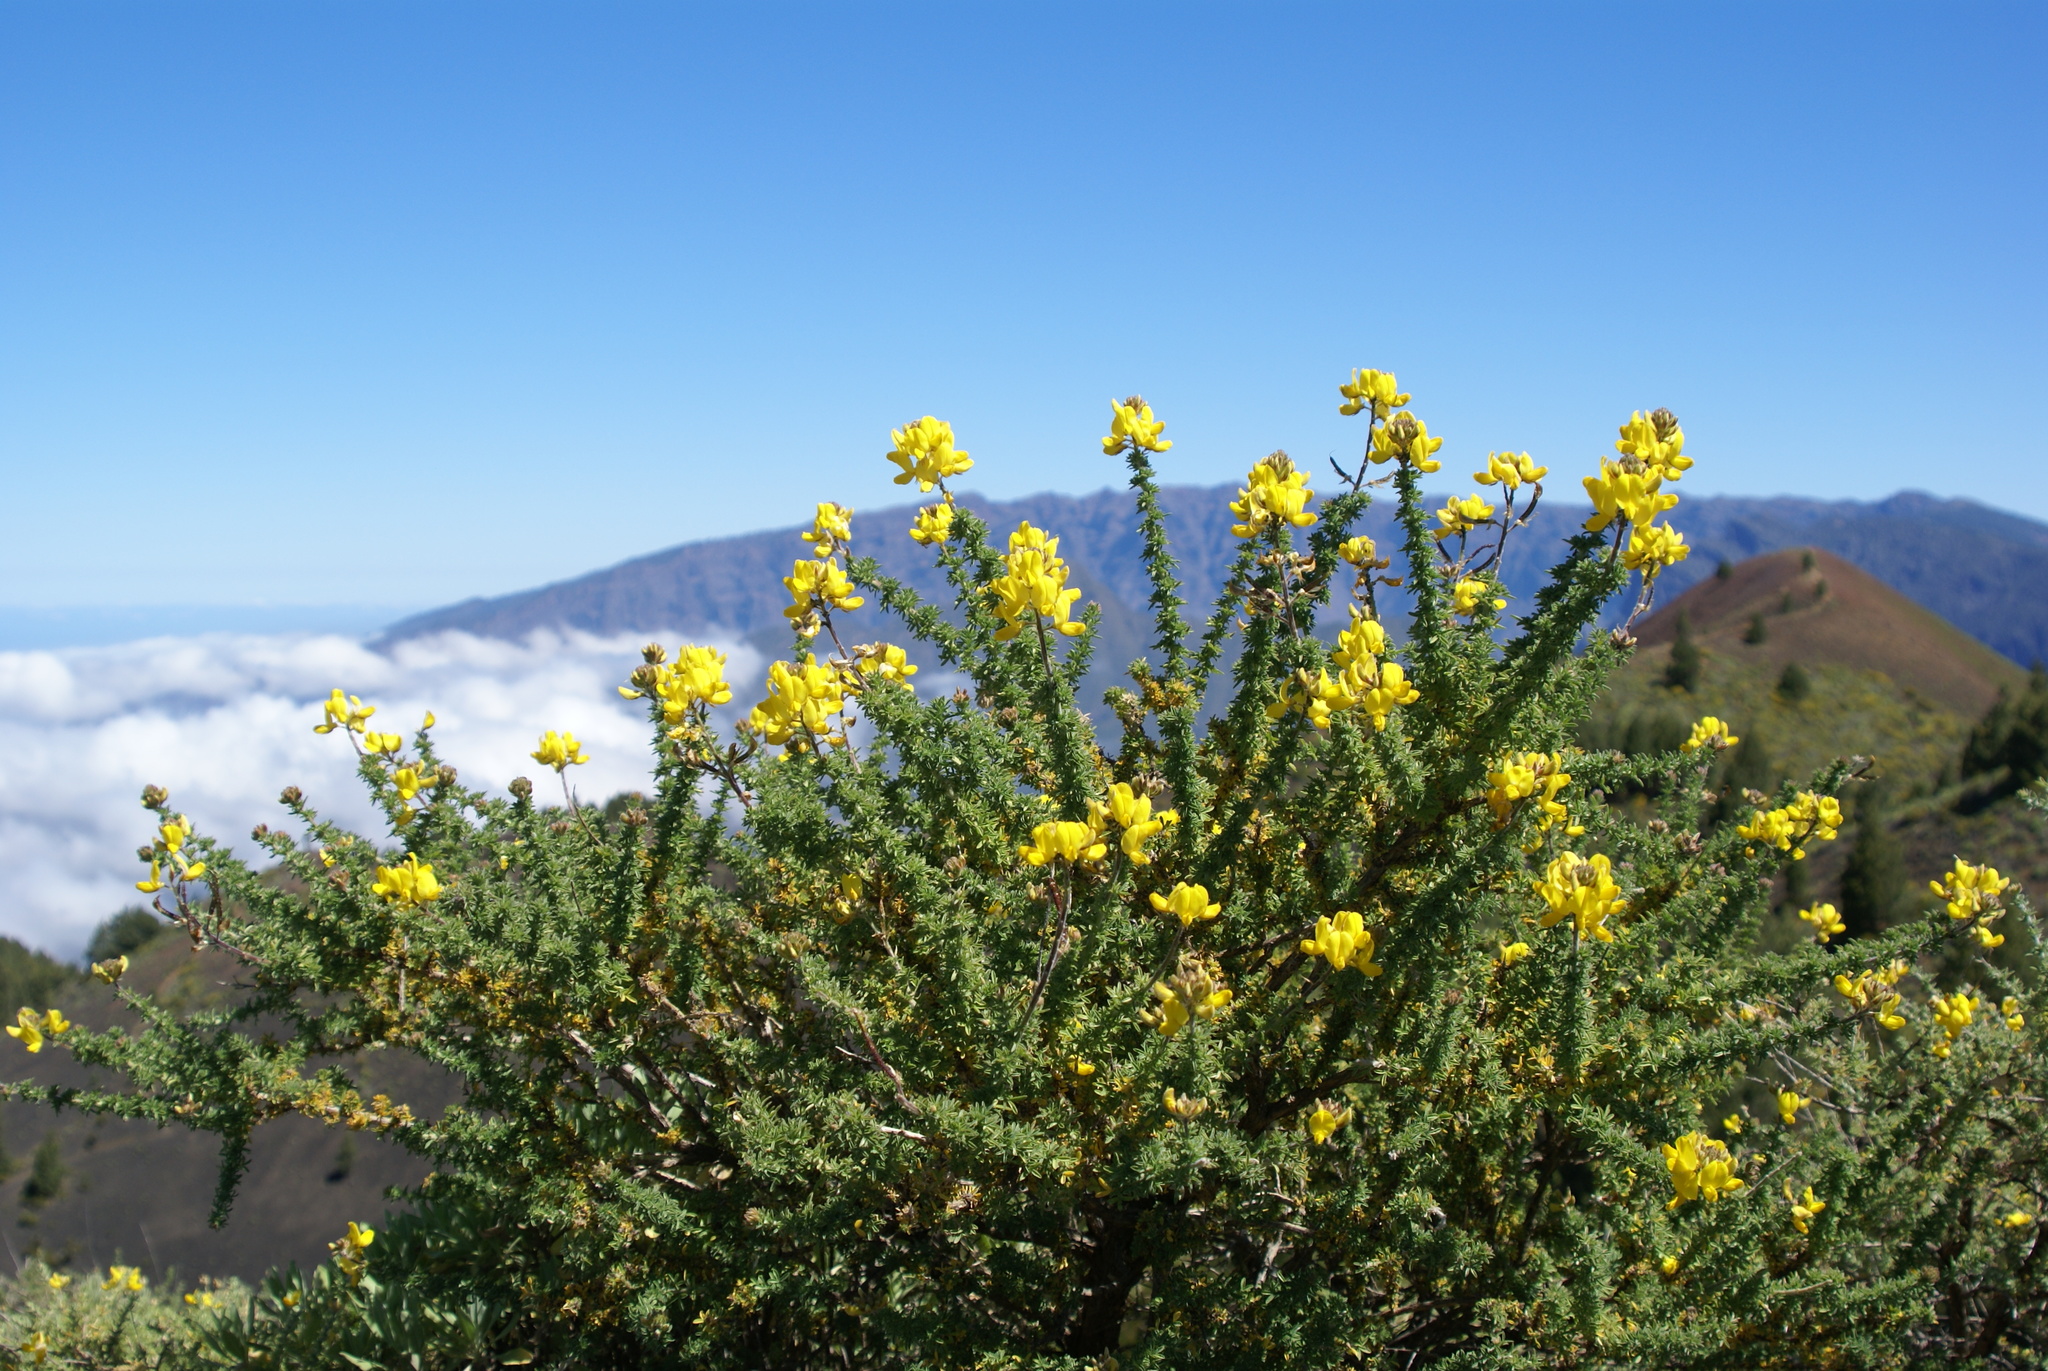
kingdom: Plantae
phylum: Tracheophyta
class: Magnoliopsida
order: Fabales
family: Fabaceae
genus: Adenocarpus
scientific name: Adenocarpus foliolosus
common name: Canary island flatpod
